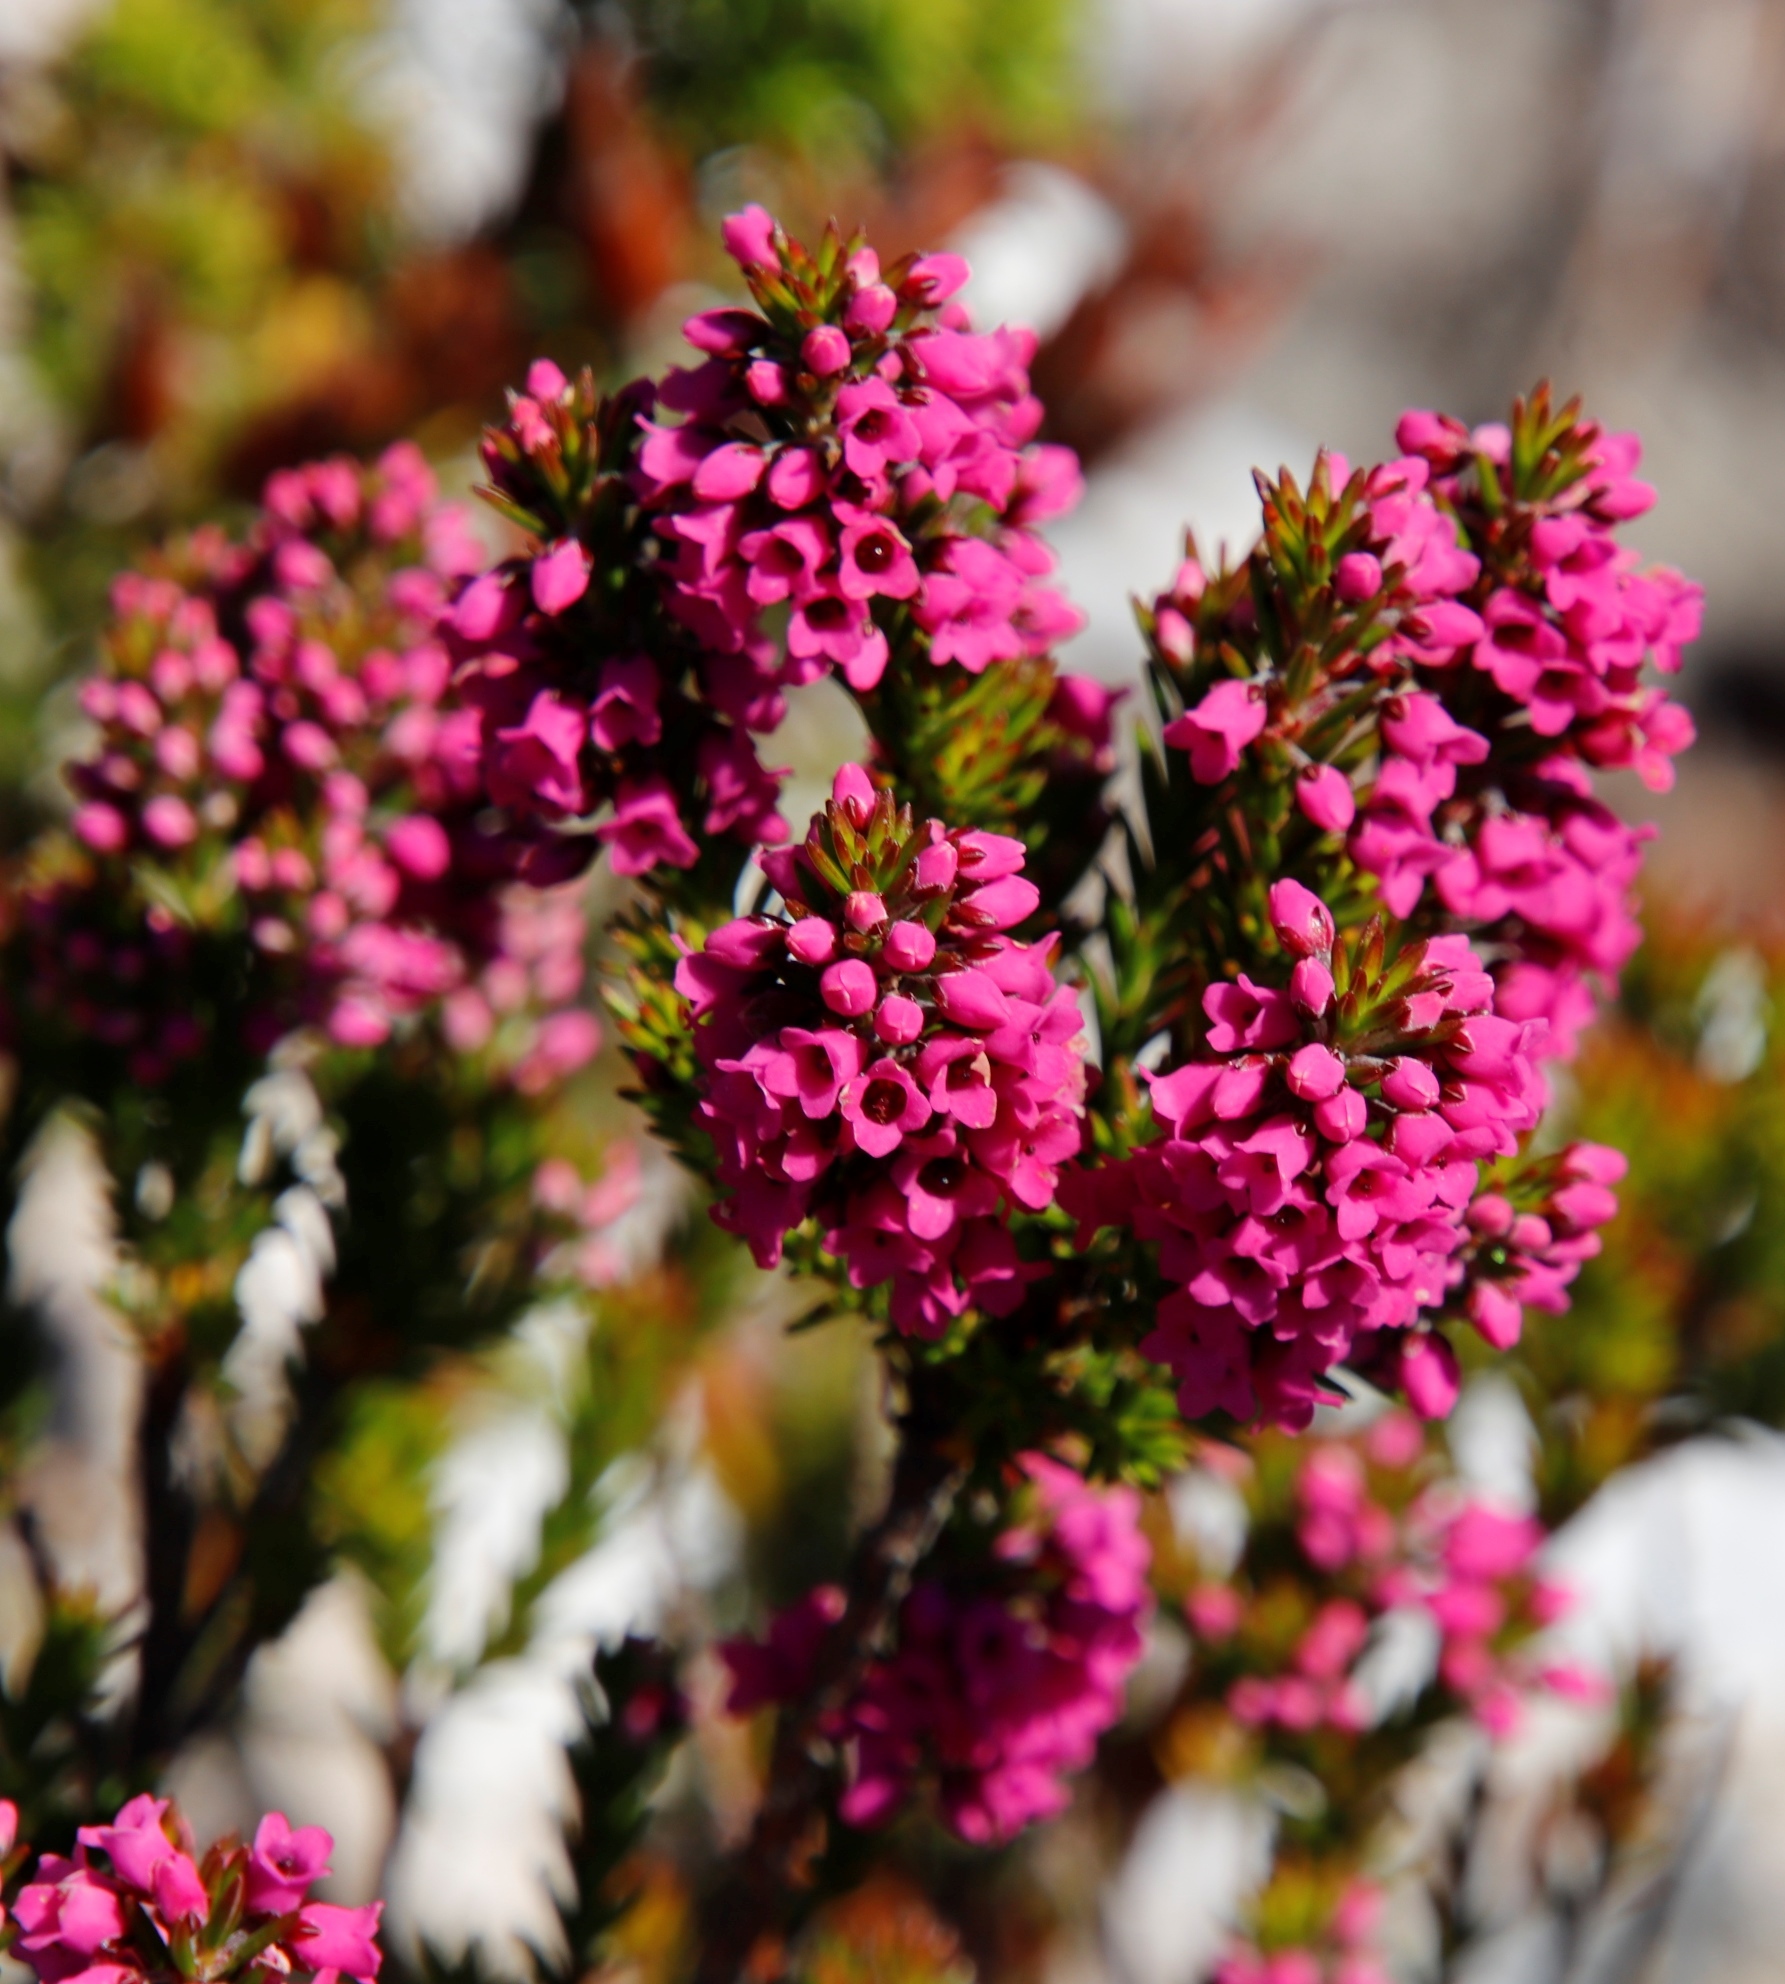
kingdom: Plantae
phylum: Tracheophyta
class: Magnoliopsida
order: Ericales
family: Ericaceae
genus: Erica
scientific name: Erica pulchella
